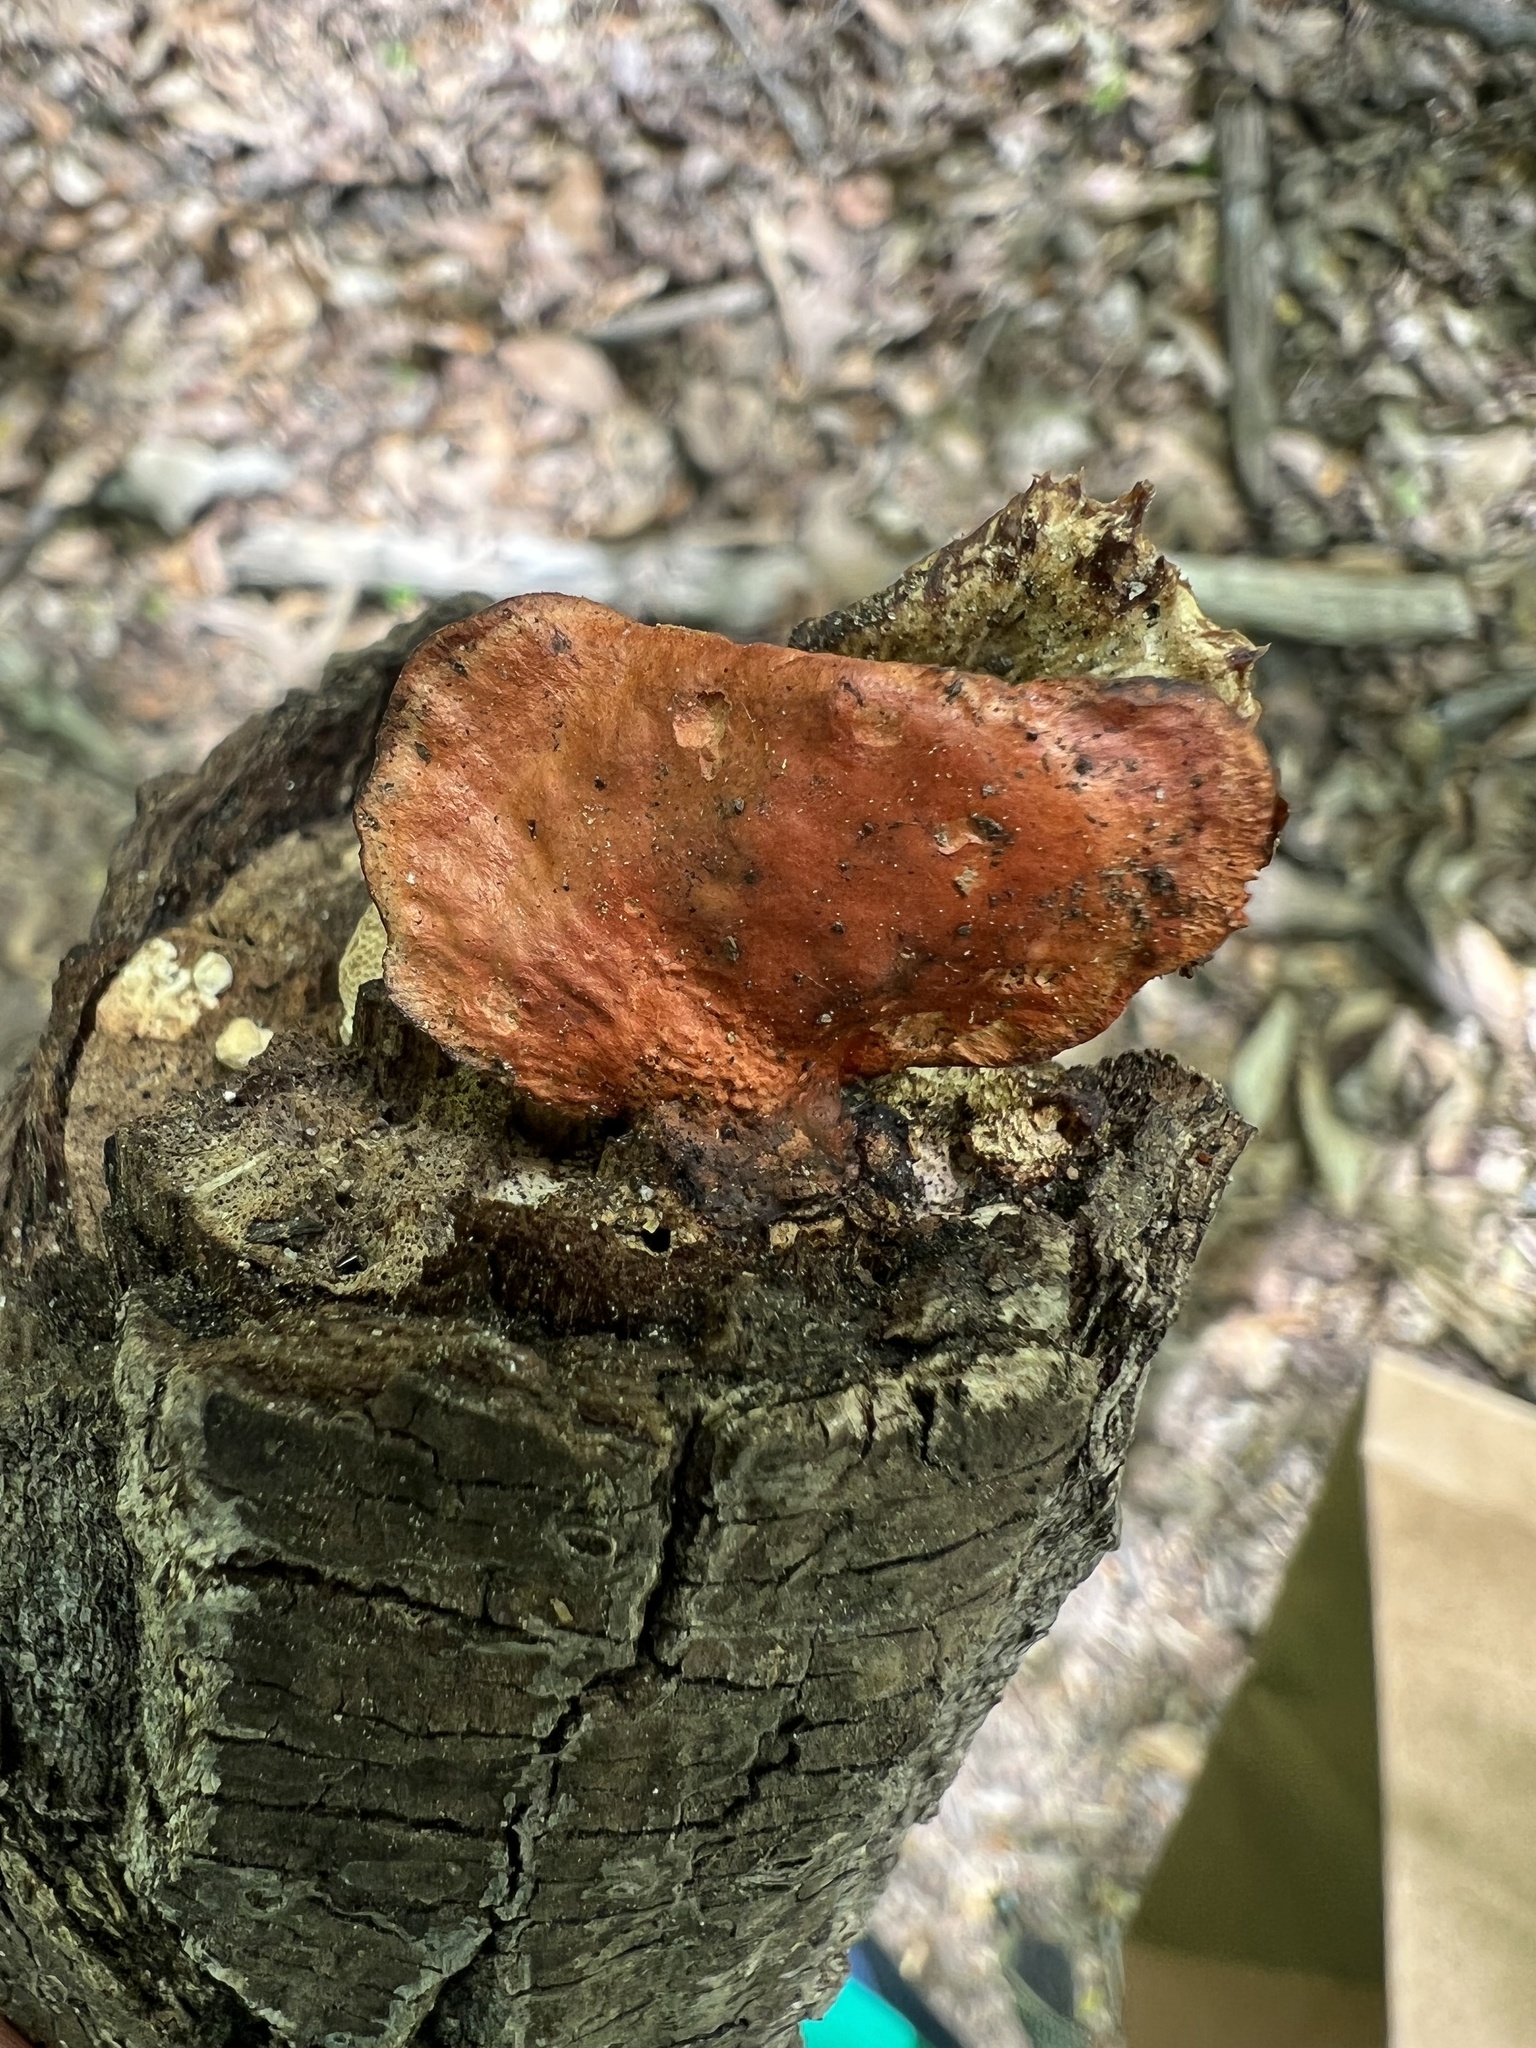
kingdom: Fungi
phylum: Basidiomycota
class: Agaricomycetes
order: Polyporales
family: Polyporaceae
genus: Trametes
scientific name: Trametes cinnabarina
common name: Northern cinnabar polypore
